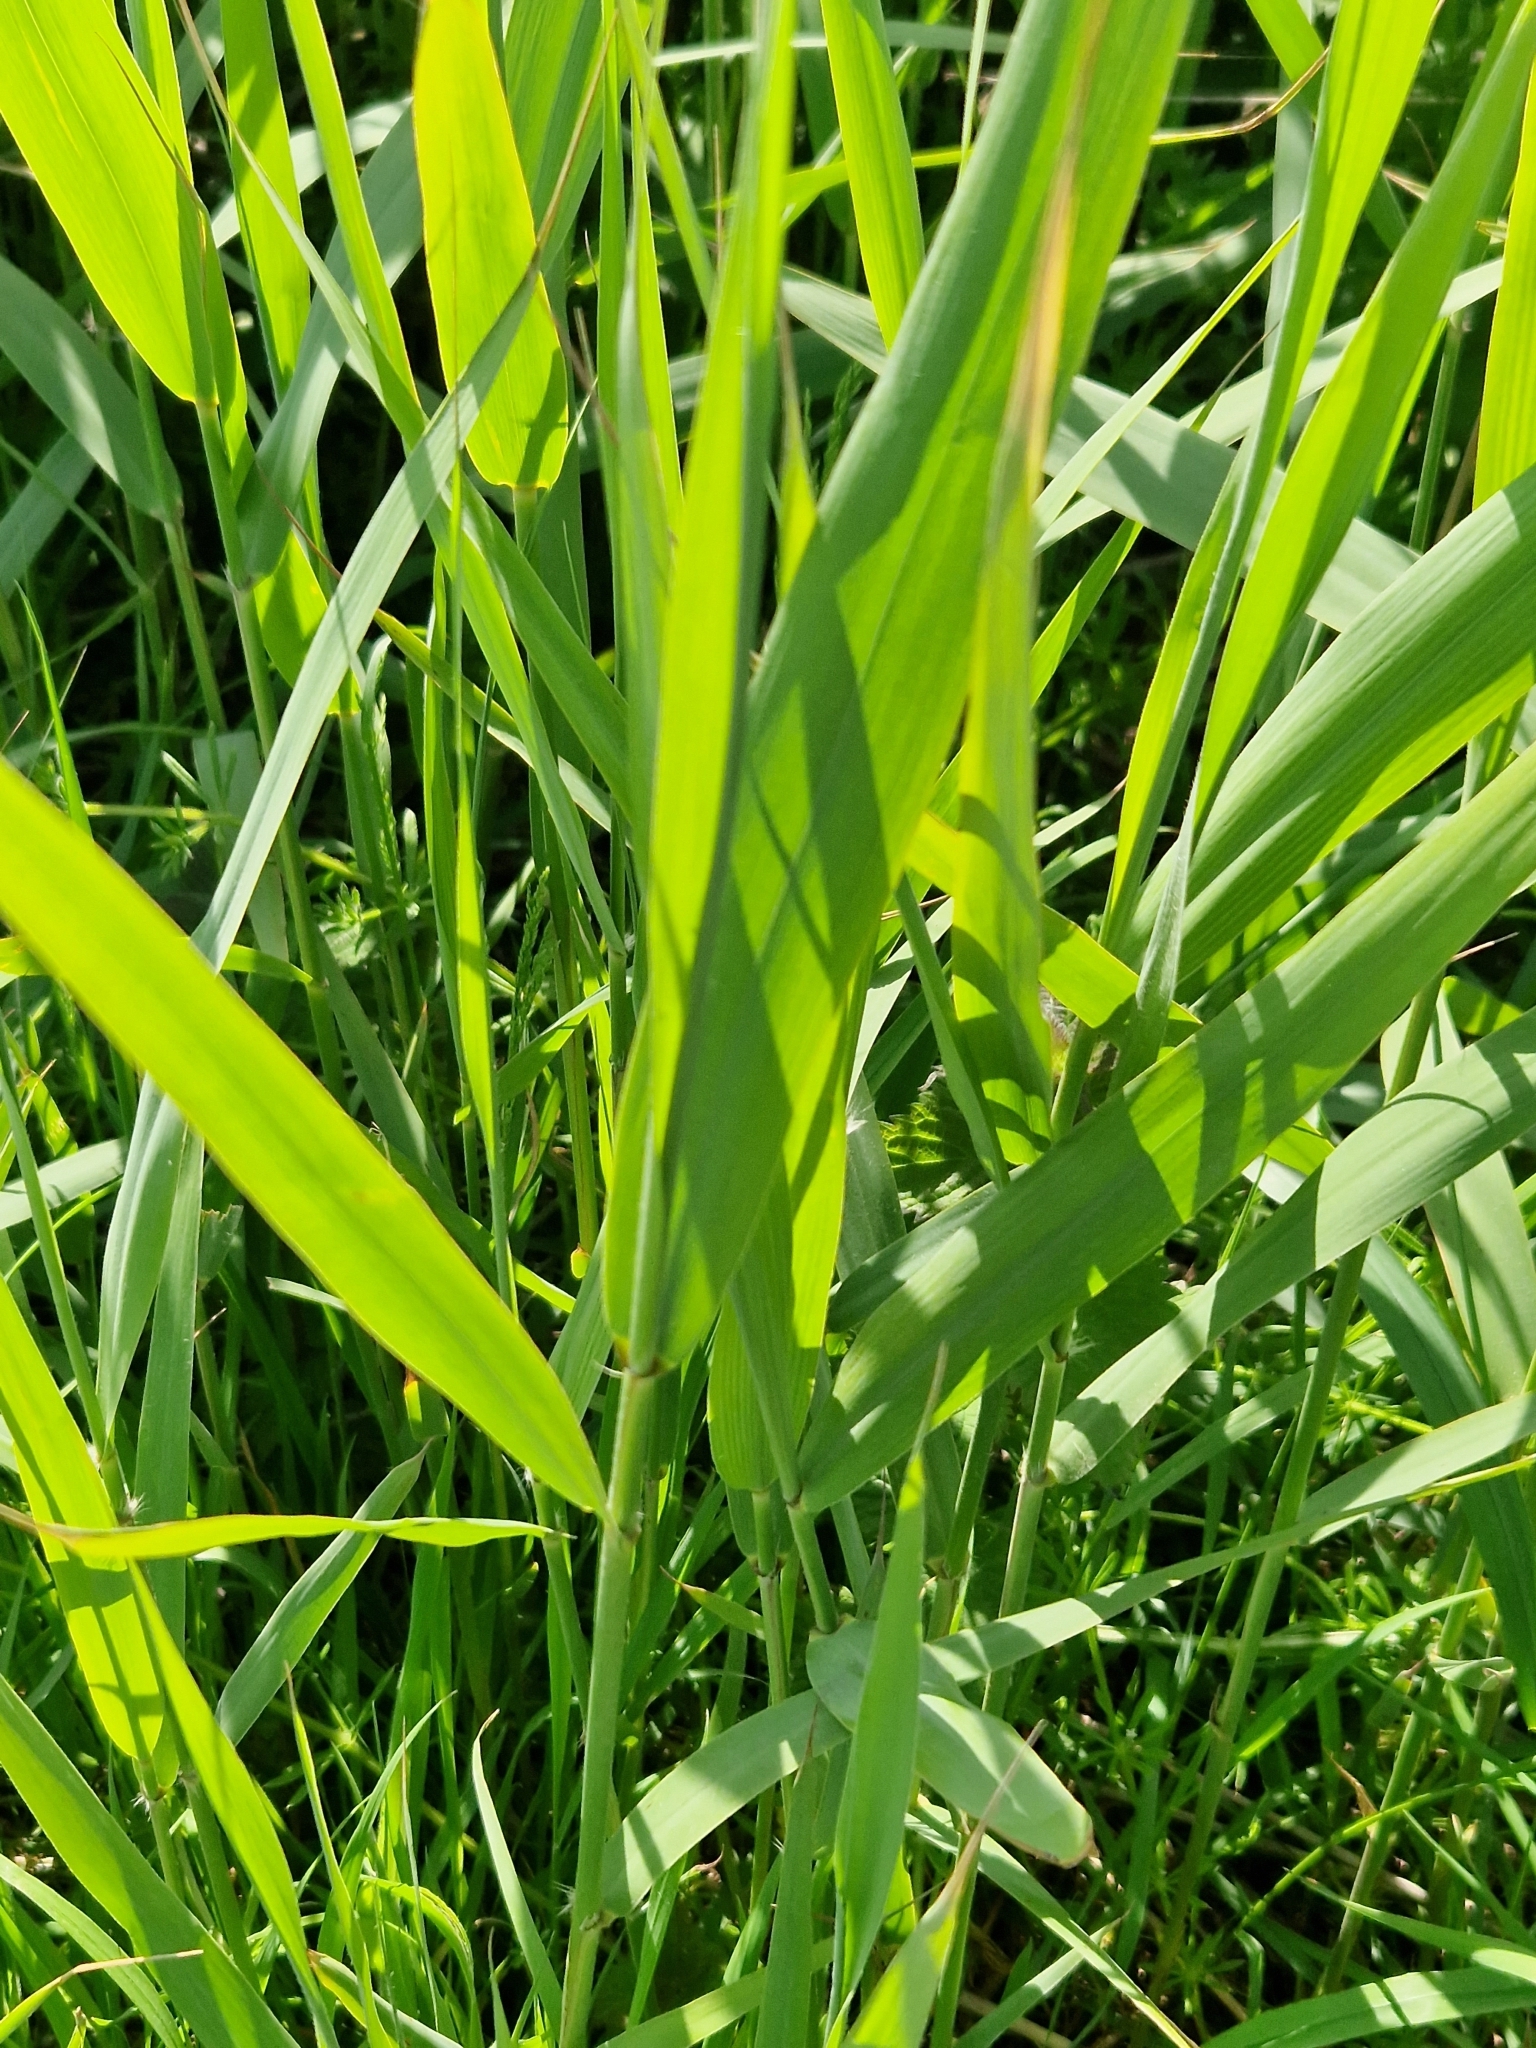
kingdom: Plantae
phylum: Tracheophyta
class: Liliopsida
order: Poales
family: Poaceae
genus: Phragmites
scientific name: Phragmites australis
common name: Common reed
